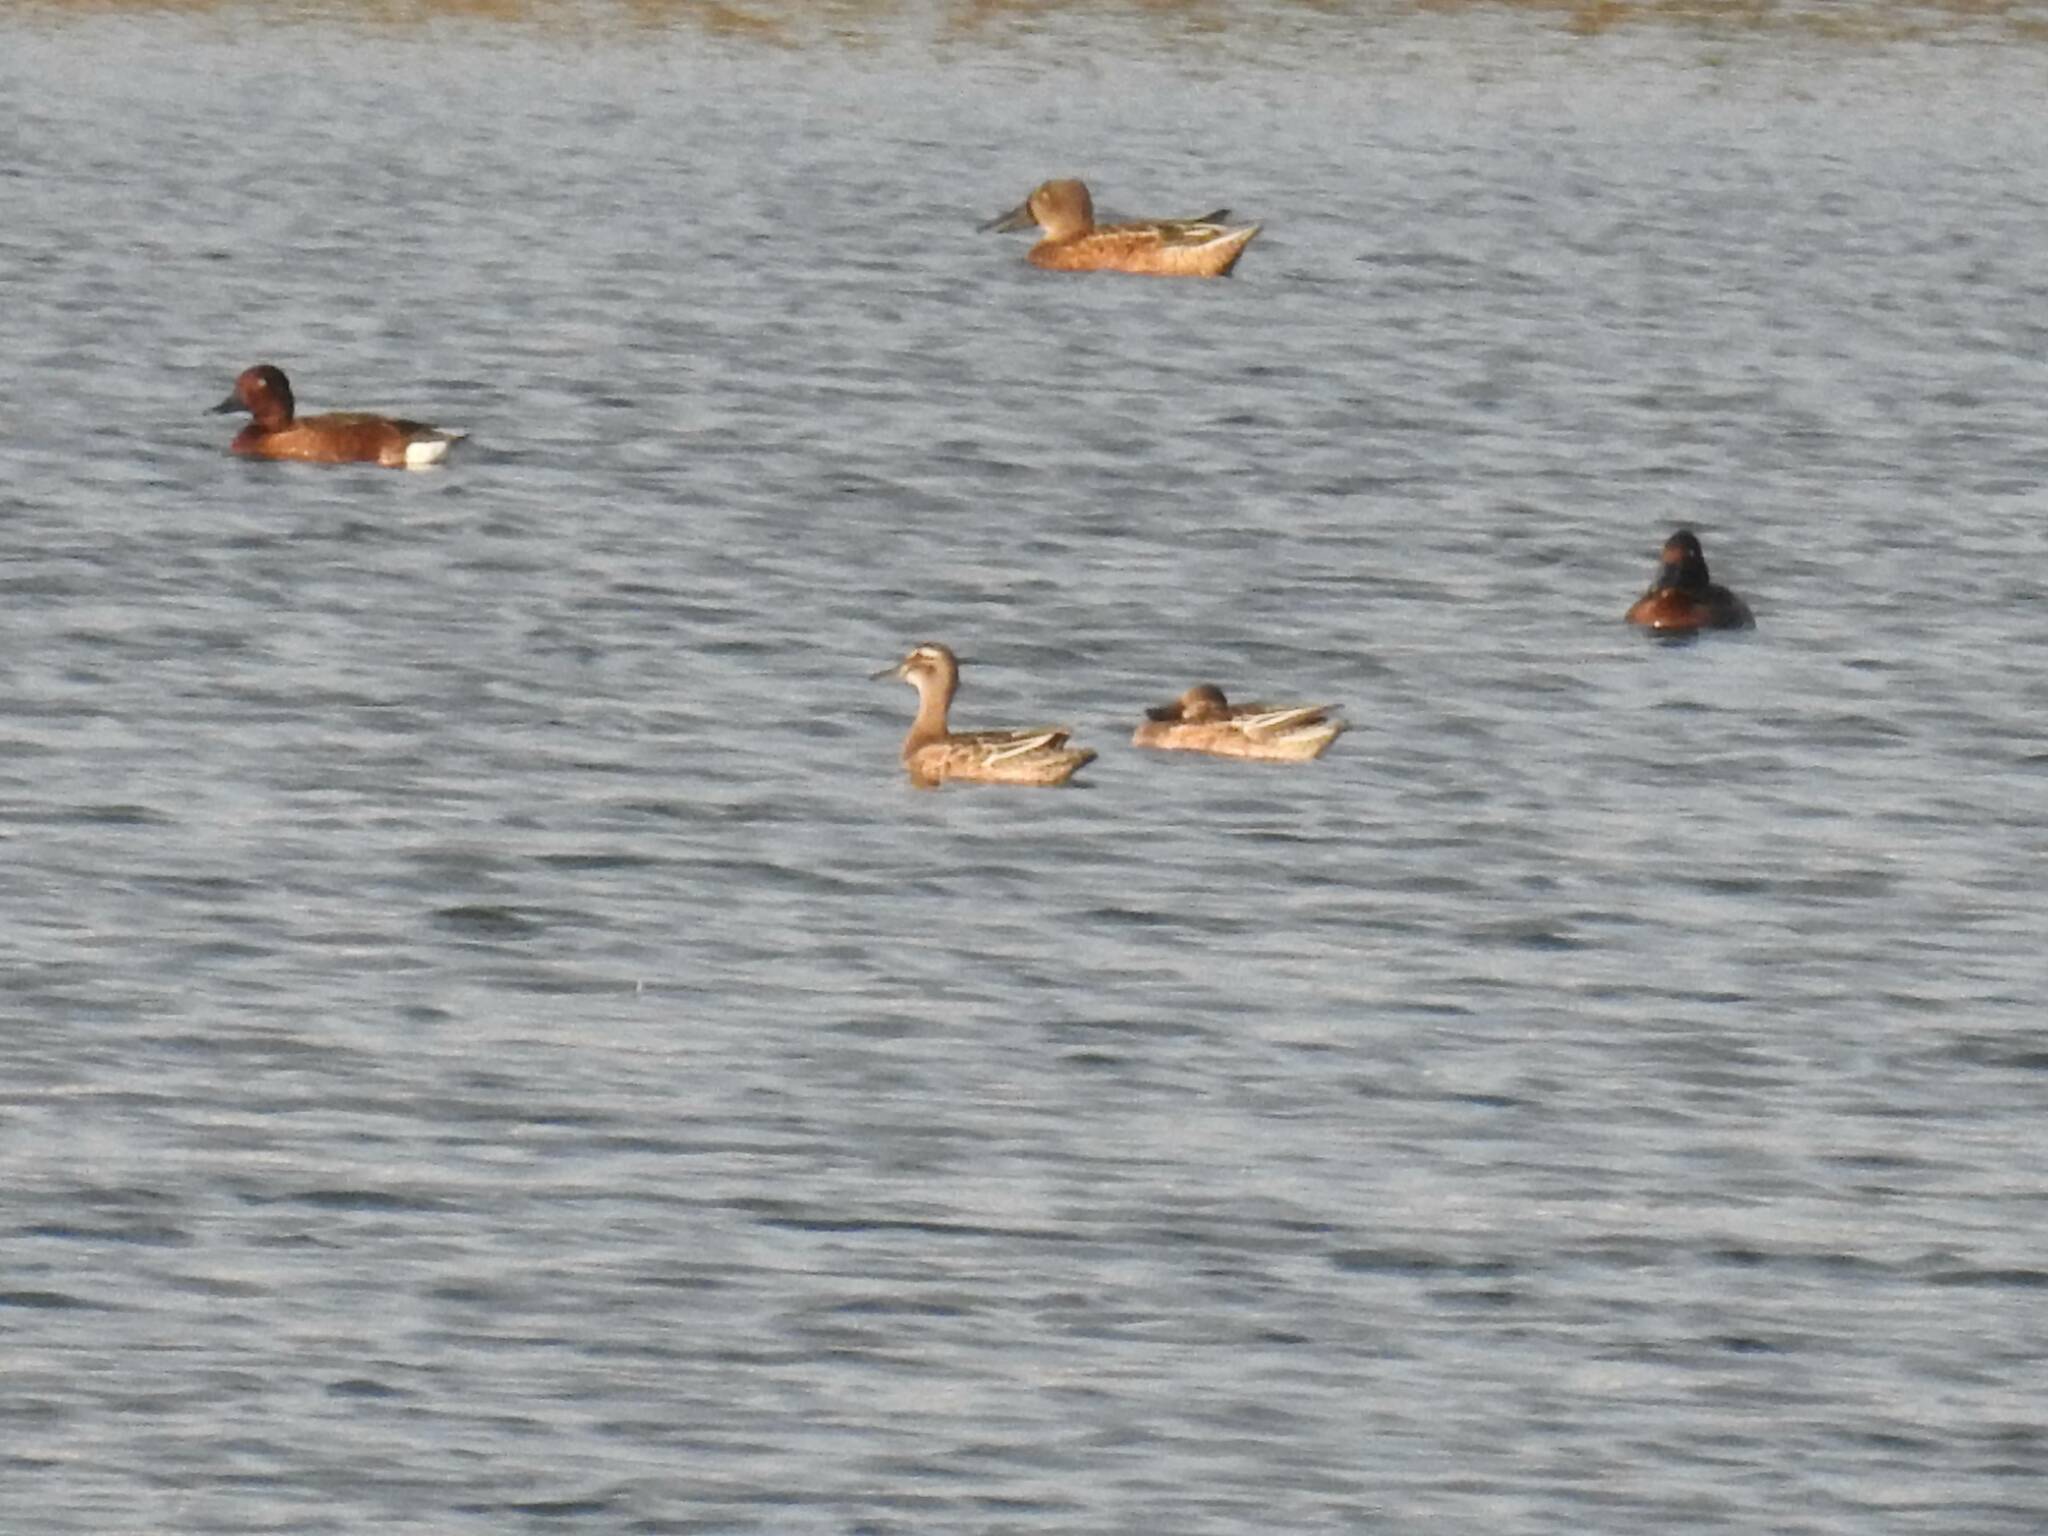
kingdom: Animalia
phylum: Chordata
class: Aves
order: Anseriformes
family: Anatidae
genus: Spatula
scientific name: Spatula querquedula
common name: Garganey
